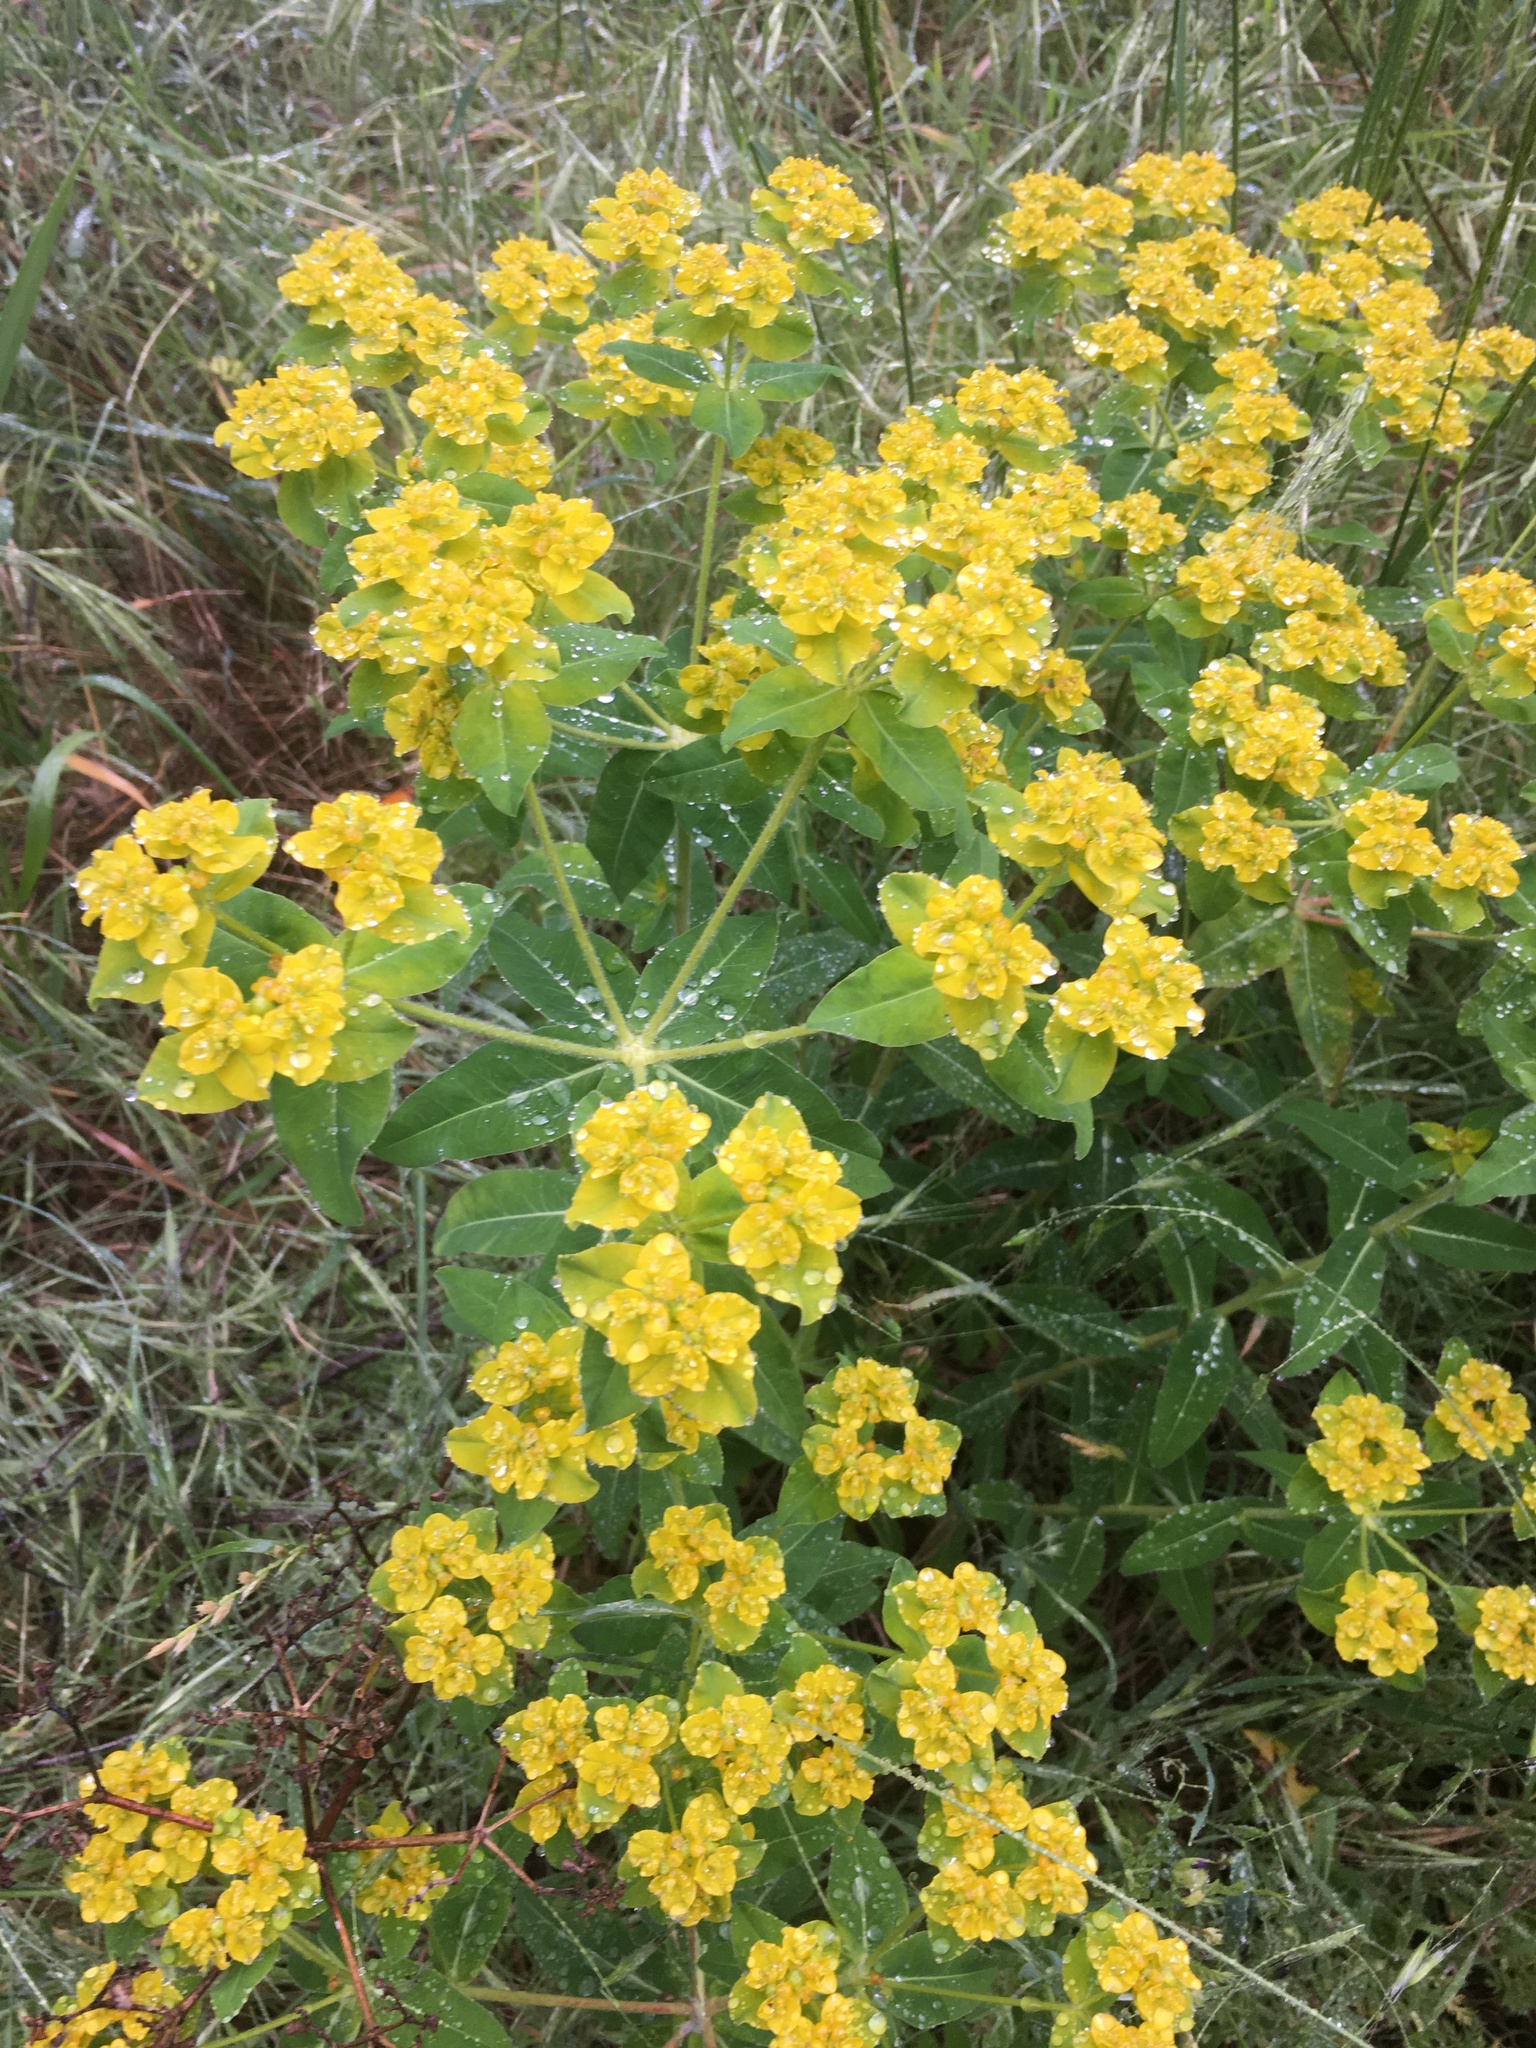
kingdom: Plantae
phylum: Tracheophyta
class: Magnoliopsida
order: Malpighiales
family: Euphorbiaceae
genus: Euphorbia
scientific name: Euphorbia oblongata
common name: Balkan spurge
